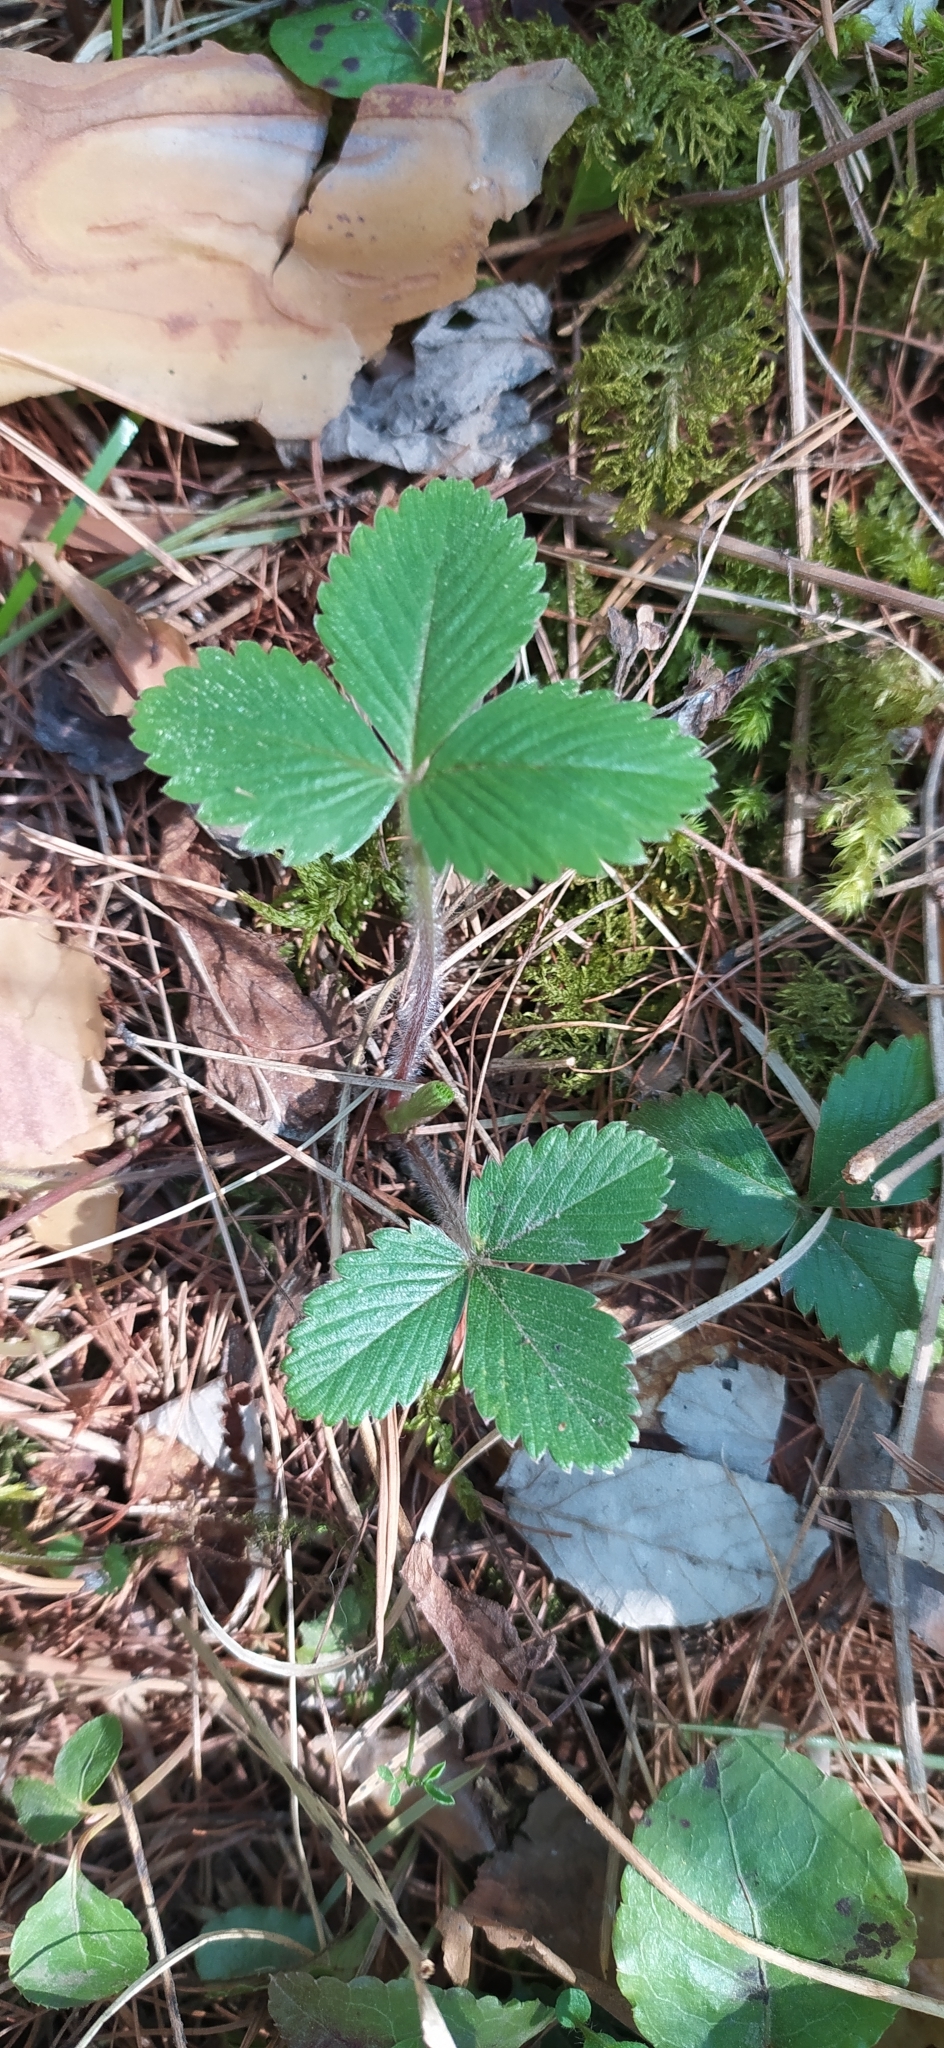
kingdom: Plantae
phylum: Tracheophyta
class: Magnoliopsida
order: Rosales
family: Rosaceae
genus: Fragaria
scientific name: Fragaria vesca
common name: Wild strawberry
